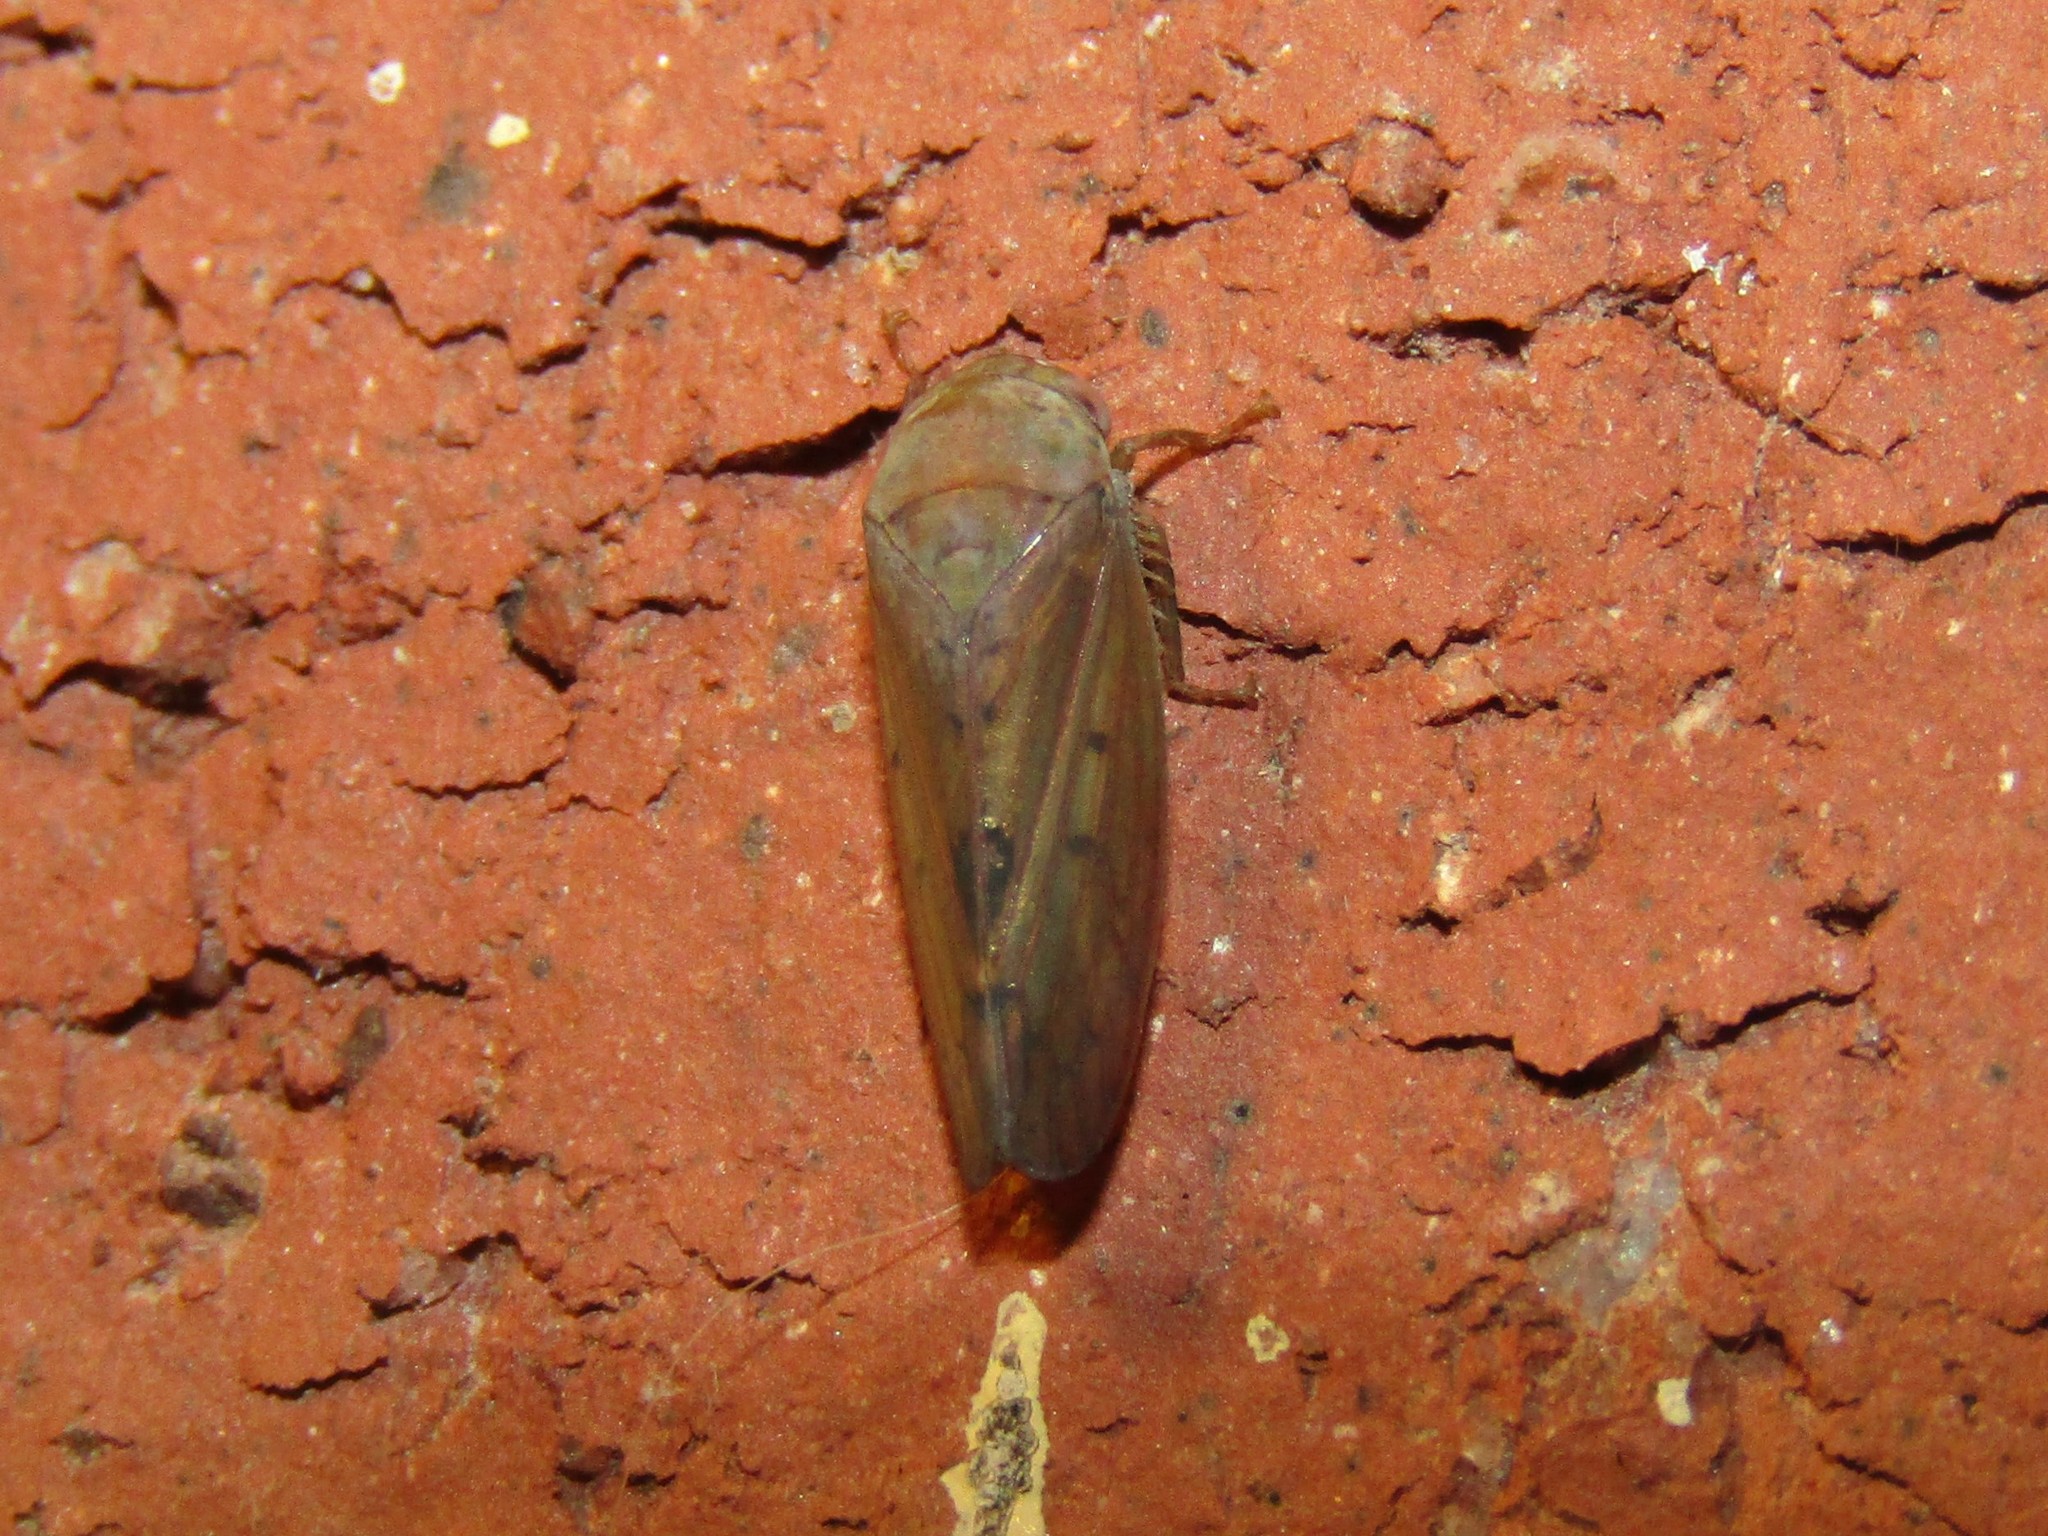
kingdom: Animalia
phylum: Arthropoda
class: Insecta
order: Hemiptera
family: Cicadellidae
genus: Polana
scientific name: Polana quadrinotata
